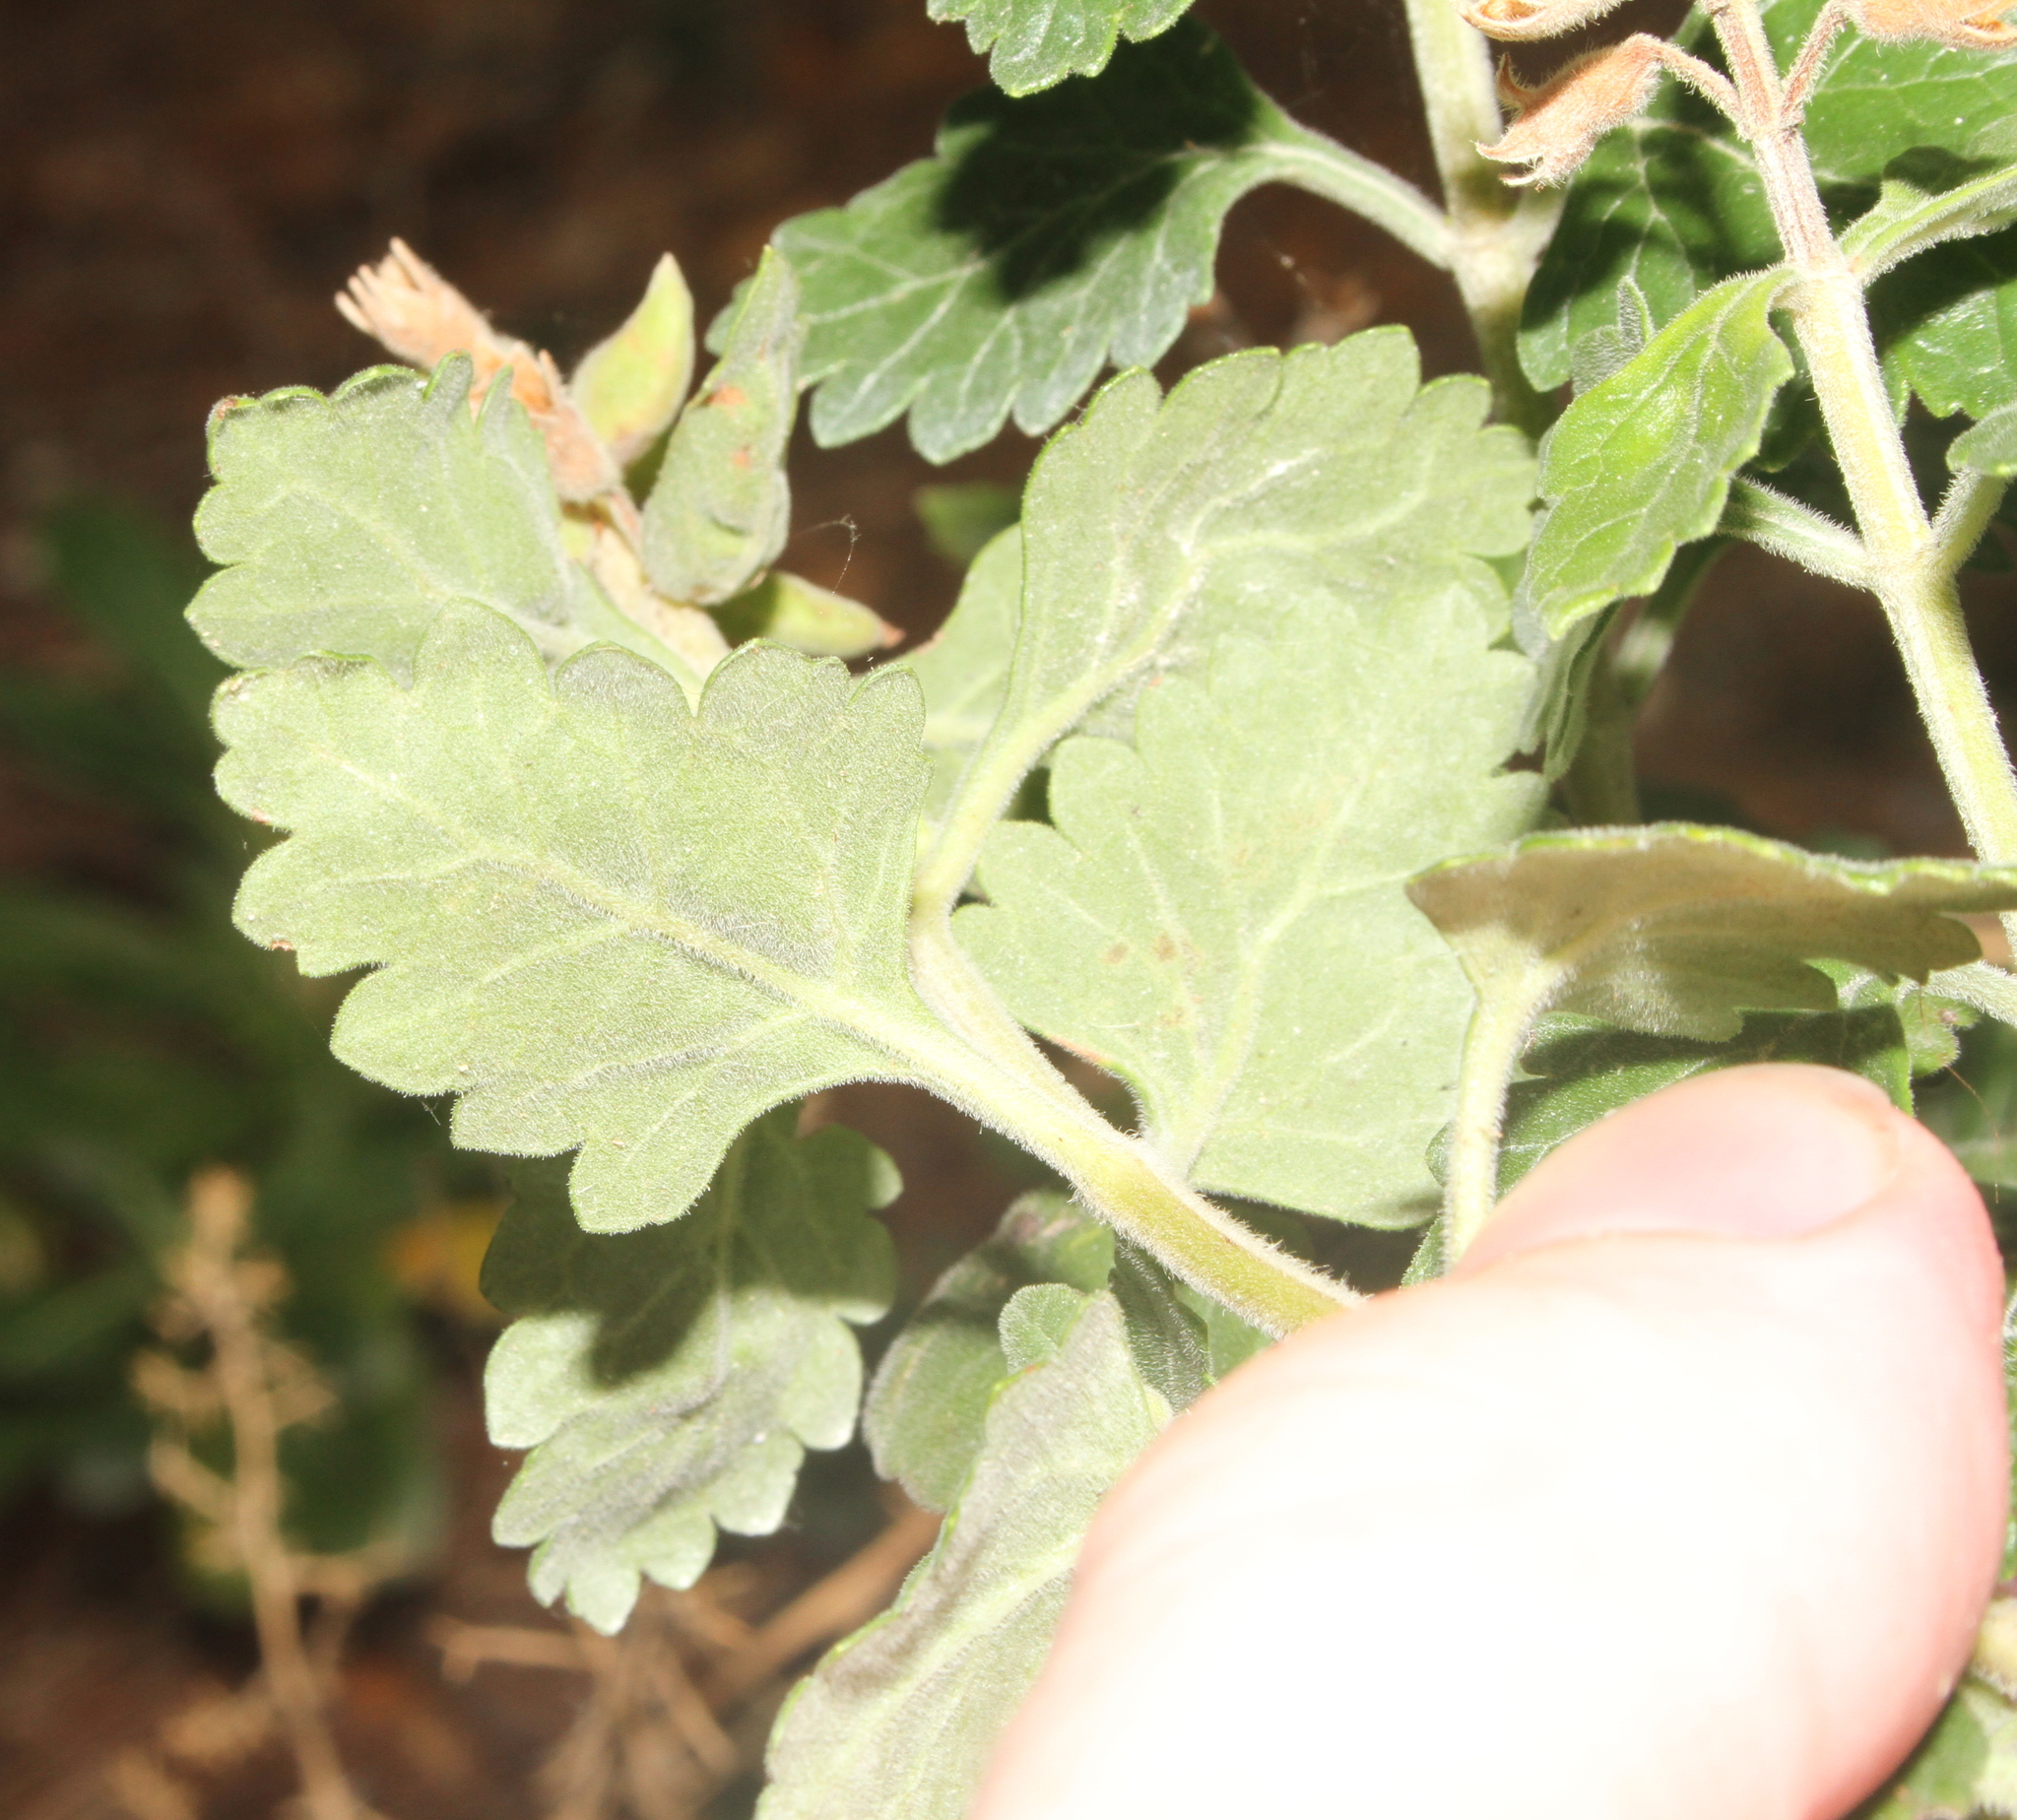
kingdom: Plantae
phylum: Tracheophyta
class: Magnoliopsida
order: Lamiales
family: Lamiaceae
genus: Teucrium
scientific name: Teucrium flavum
